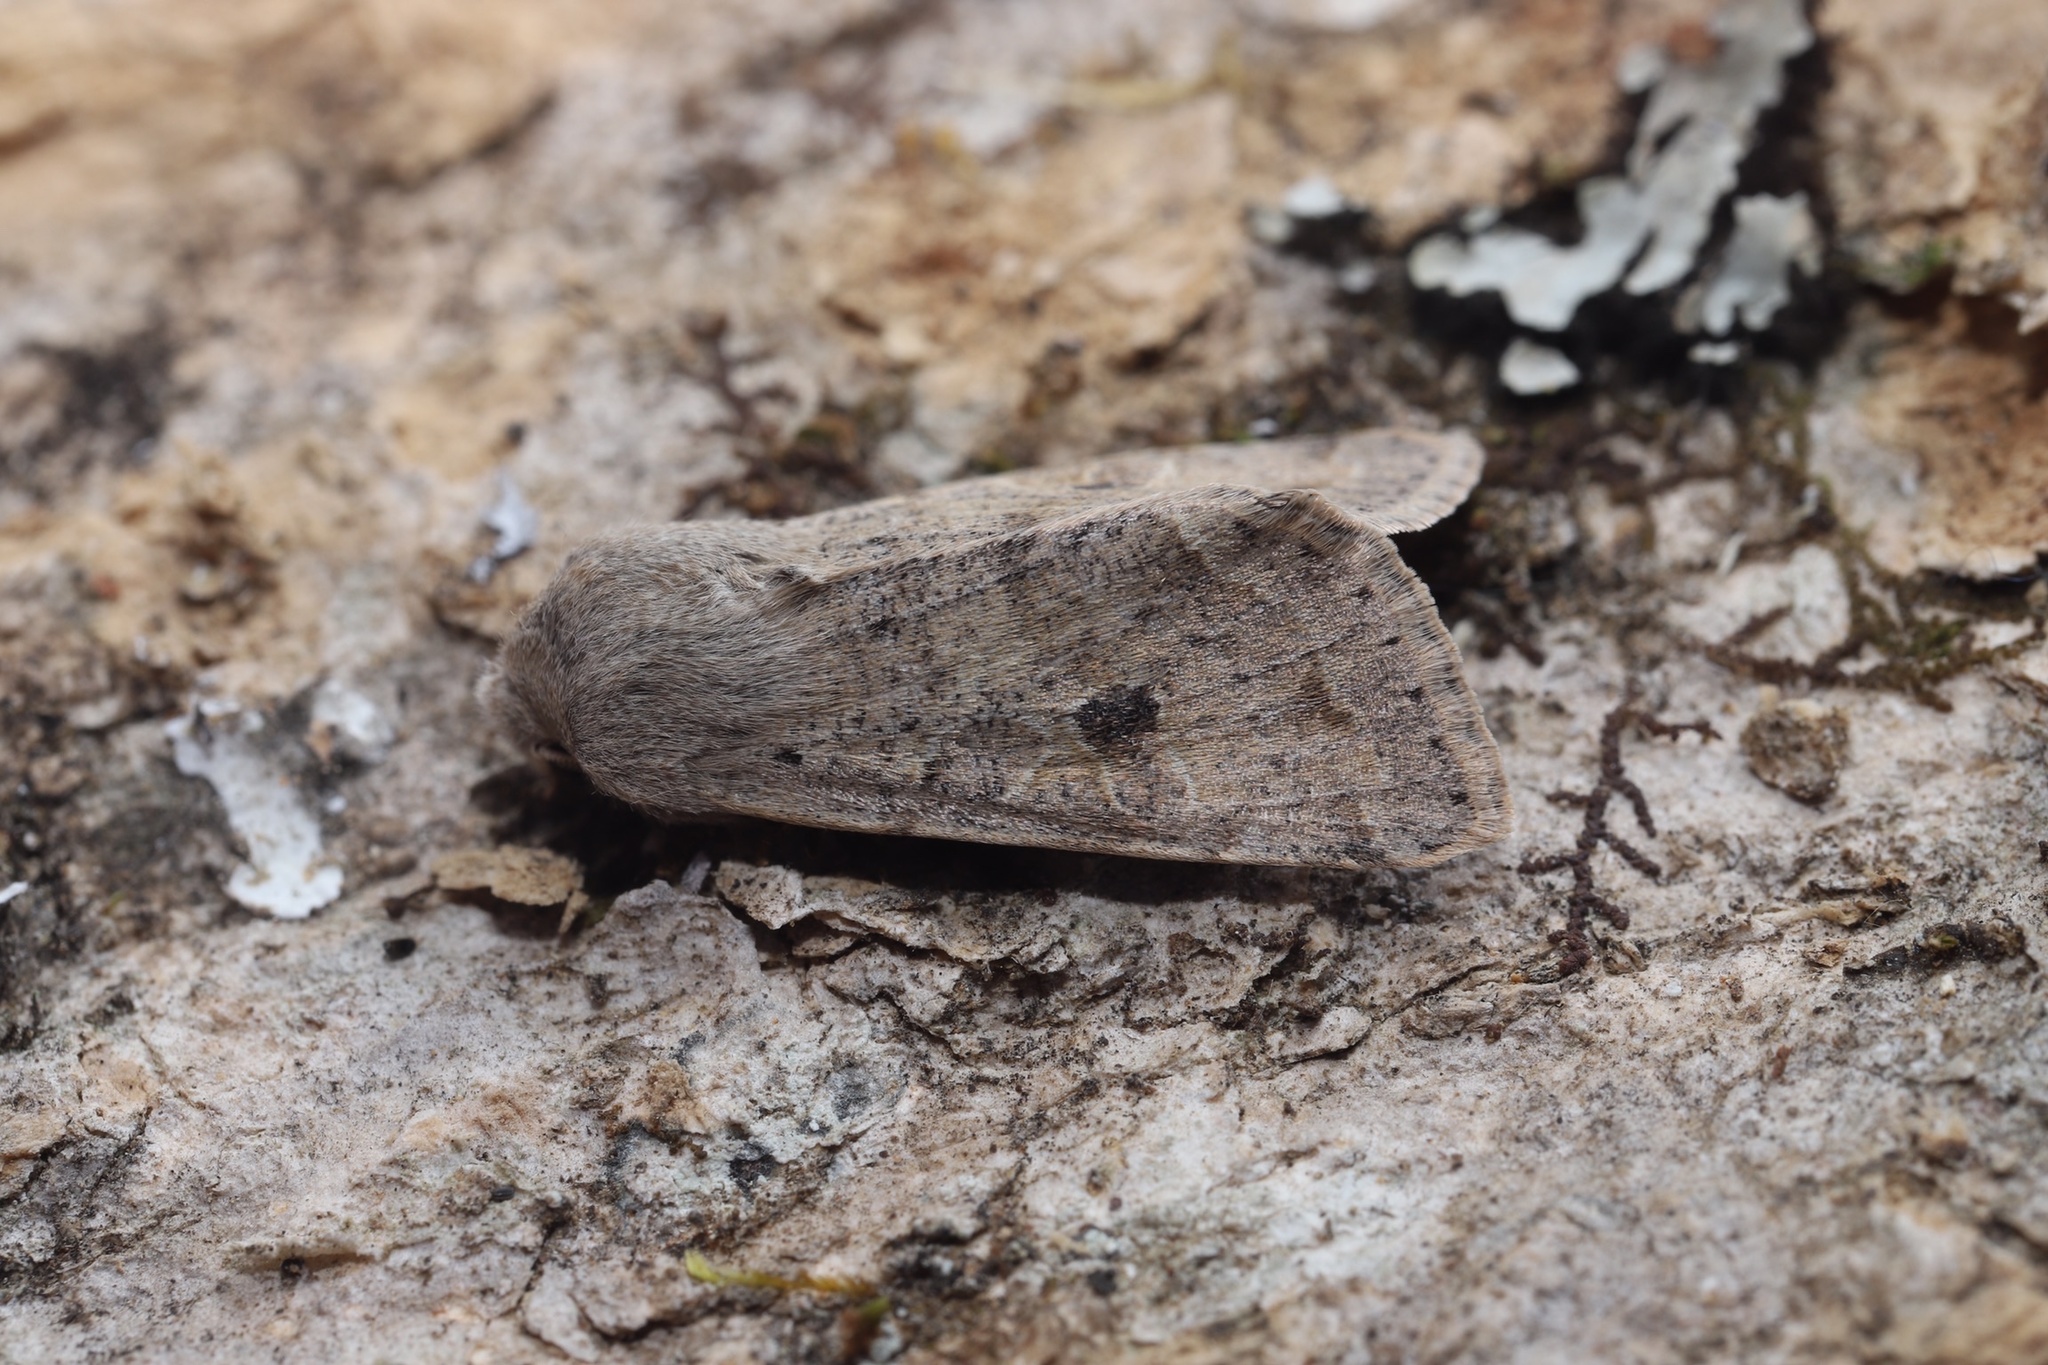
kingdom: Animalia
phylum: Arthropoda
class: Insecta
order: Lepidoptera
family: Noctuidae
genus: Orthosia
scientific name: Orthosia hibisci
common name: Green fruitworm
